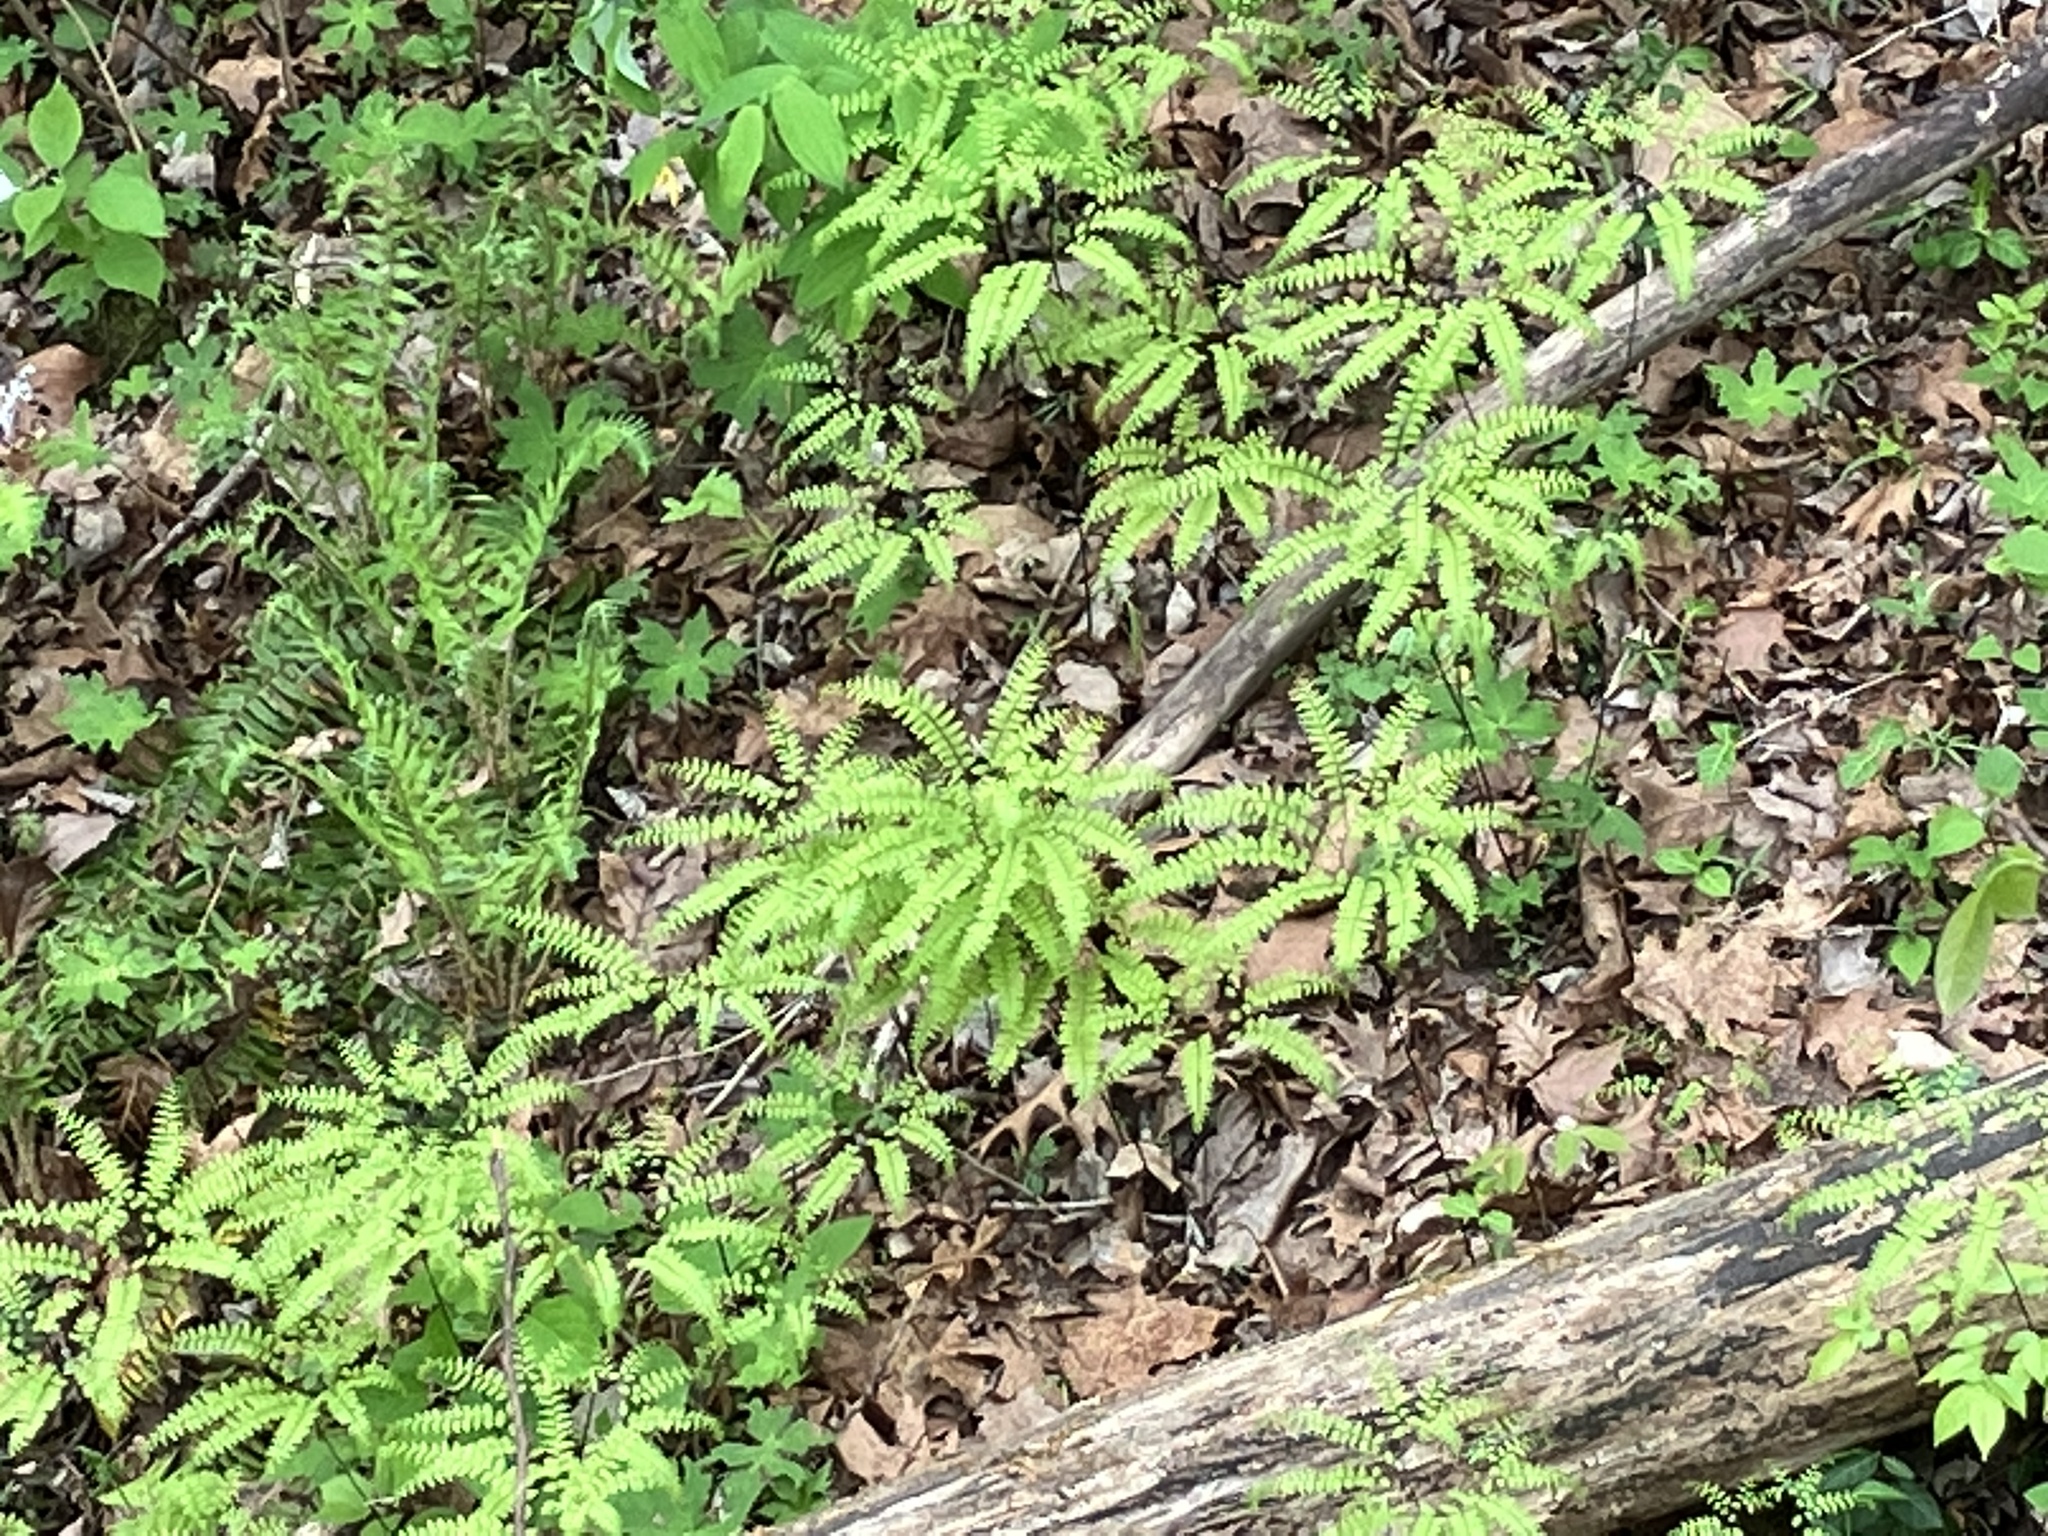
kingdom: Plantae
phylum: Tracheophyta
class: Polypodiopsida
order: Polypodiales
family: Pteridaceae
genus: Adiantum
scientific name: Adiantum pedatum
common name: Five-finger fern
